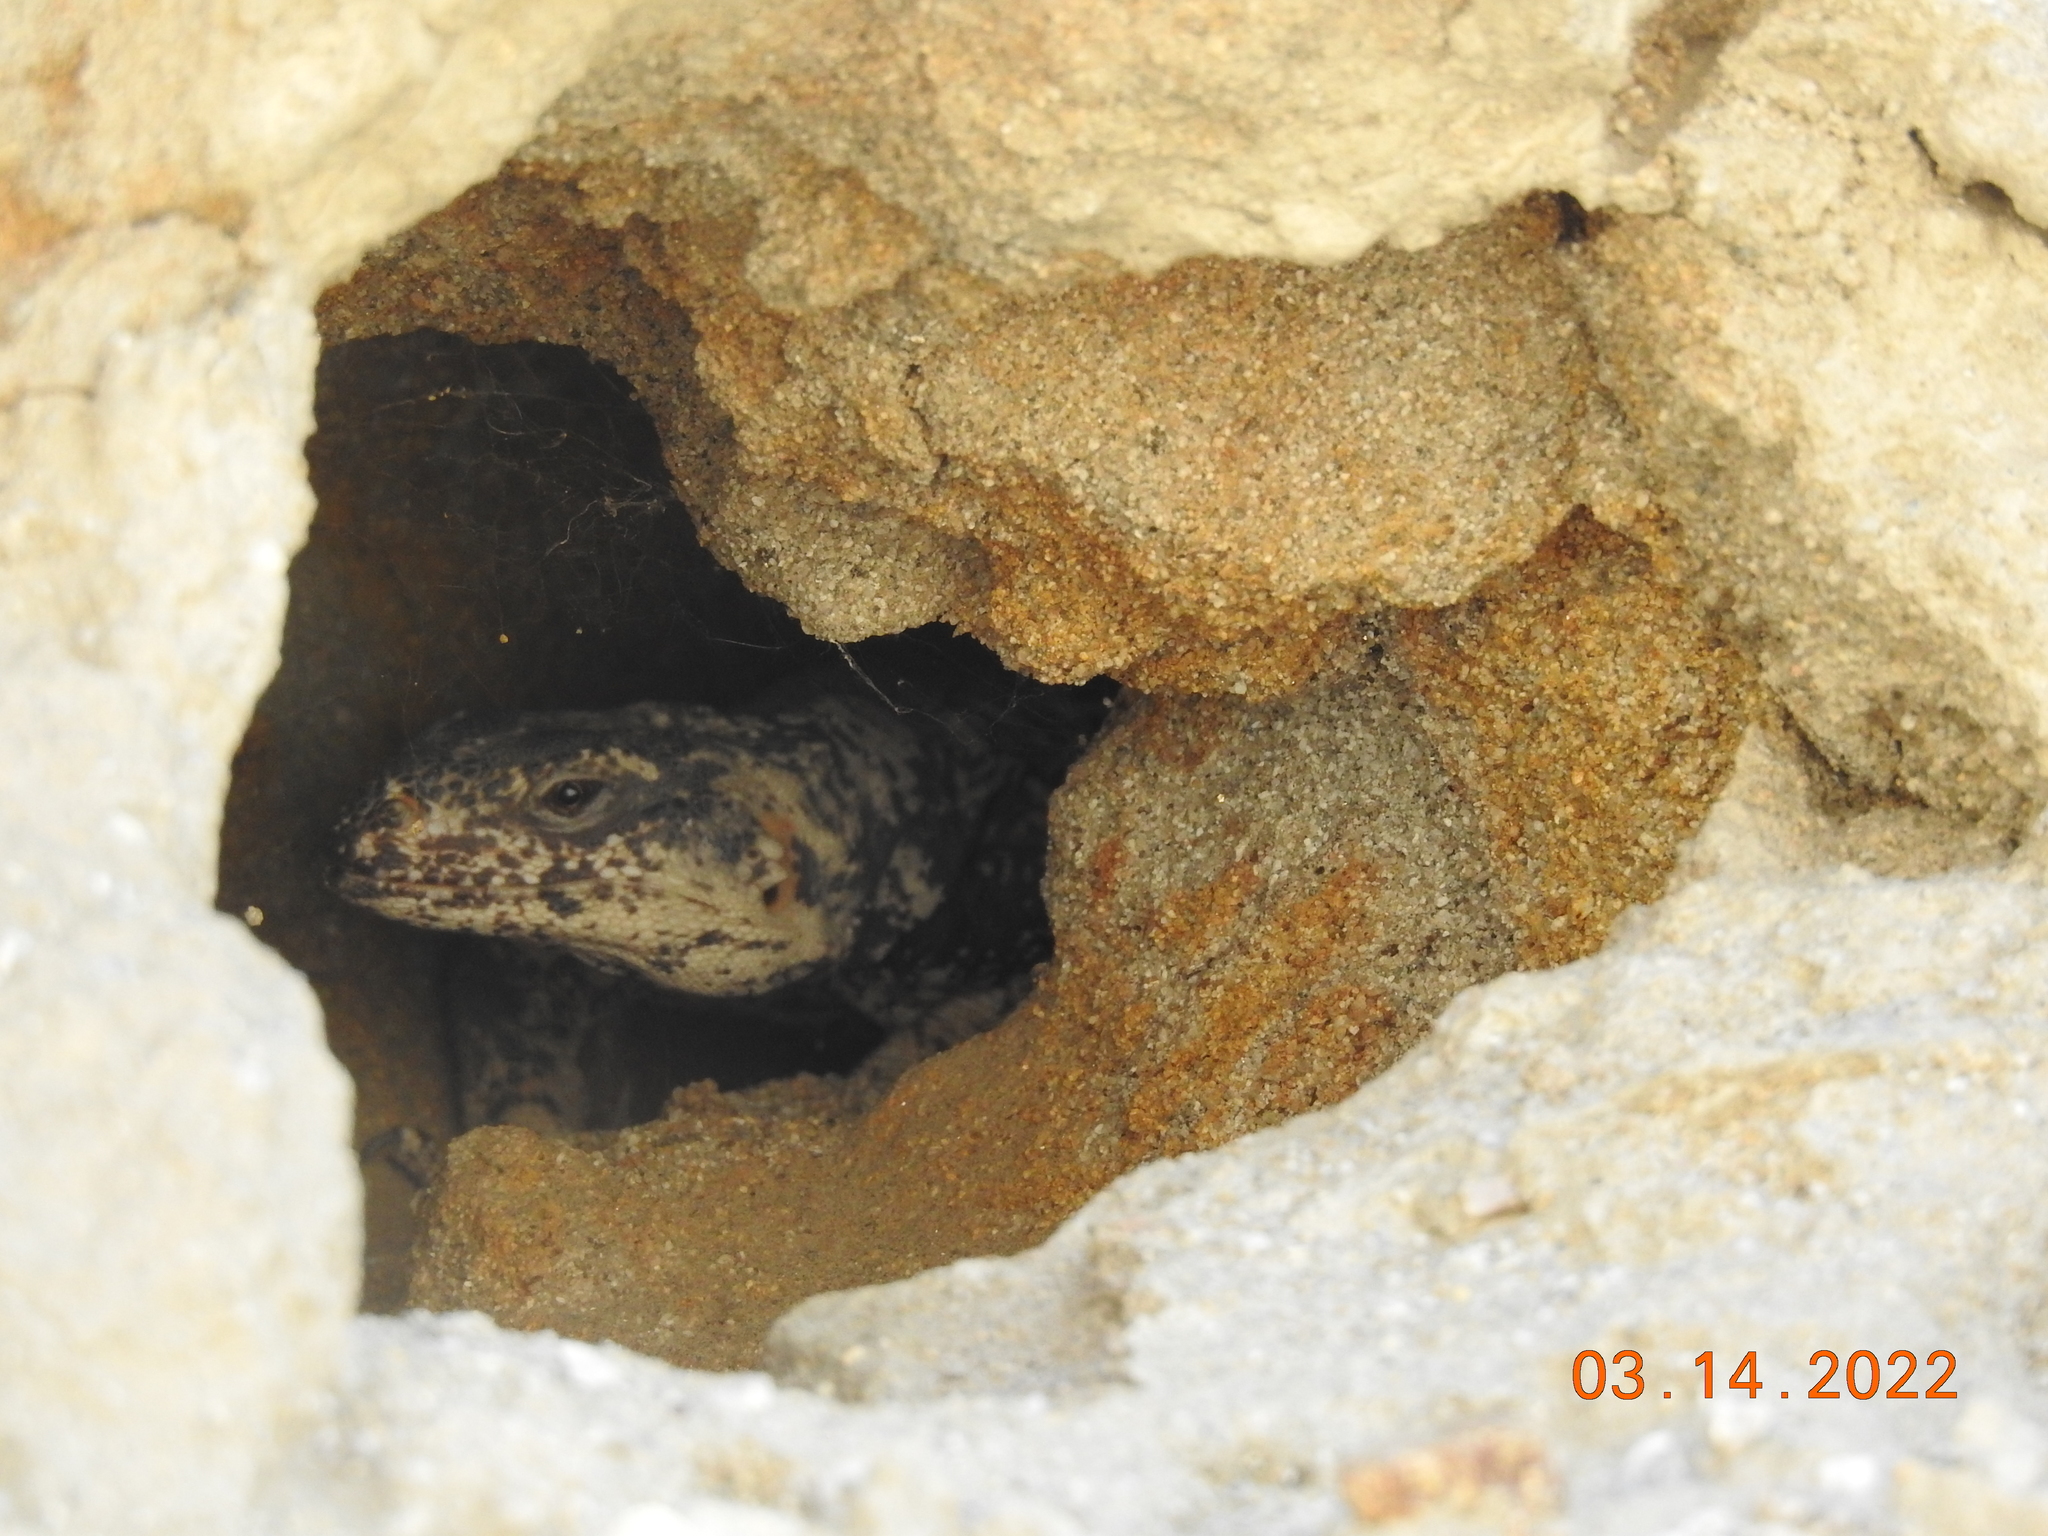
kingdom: Animalia
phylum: Chordata
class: Squamata
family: Iguanidae
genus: Sauromalus
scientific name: Sauromalus ater
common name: Northern chuckwalla
